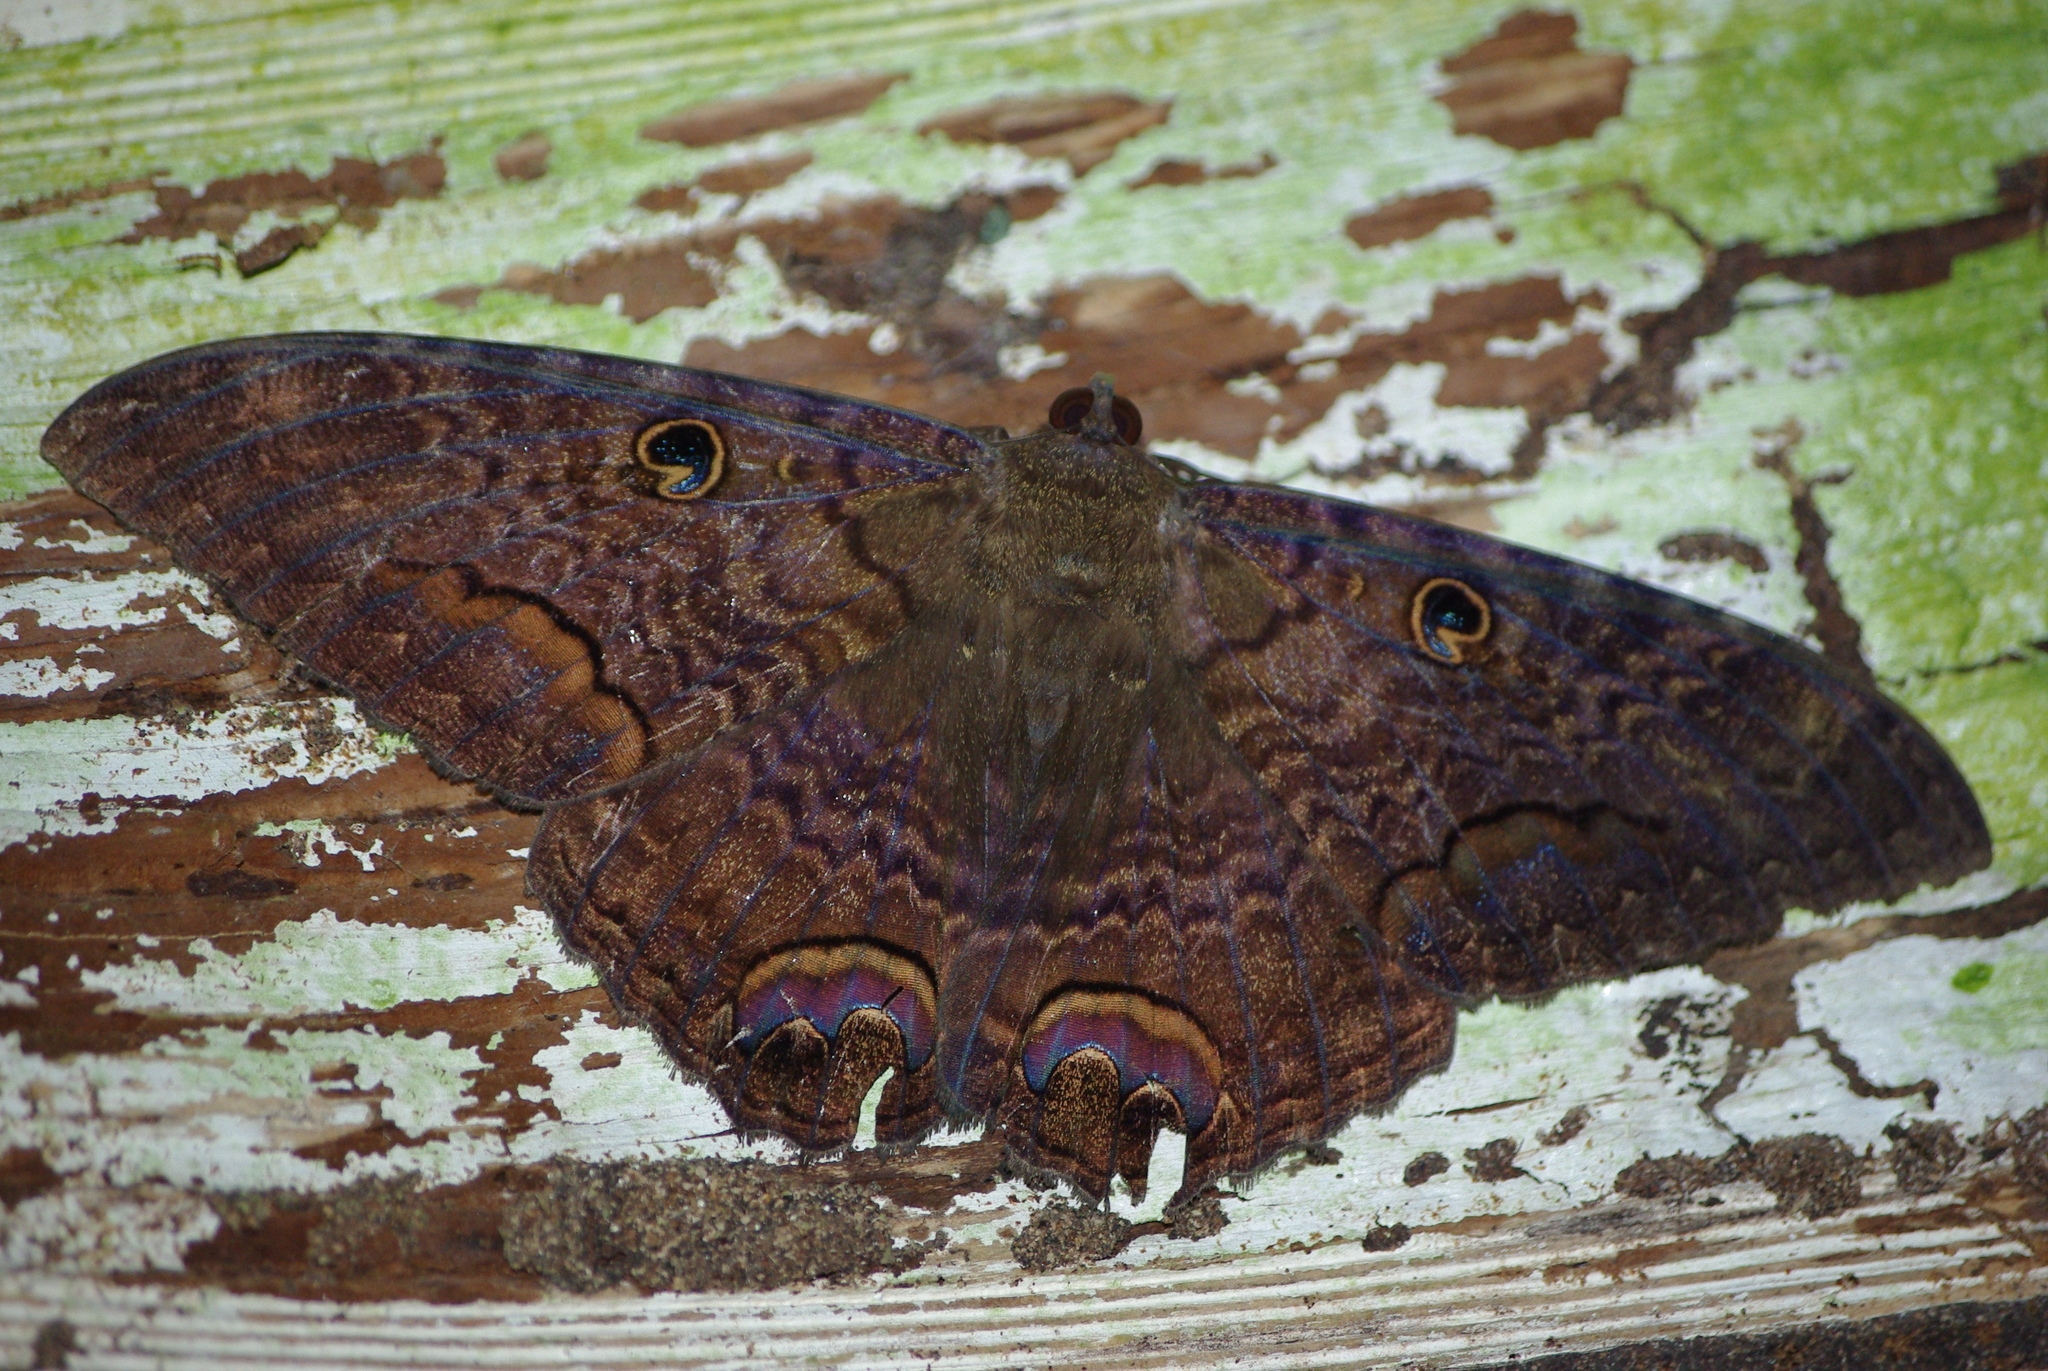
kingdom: Animalia
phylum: Arthropoda
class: Insecta
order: Lepidoptera
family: Erebidae
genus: Ascalapha
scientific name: Ascalapha odorata
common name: Black witch
